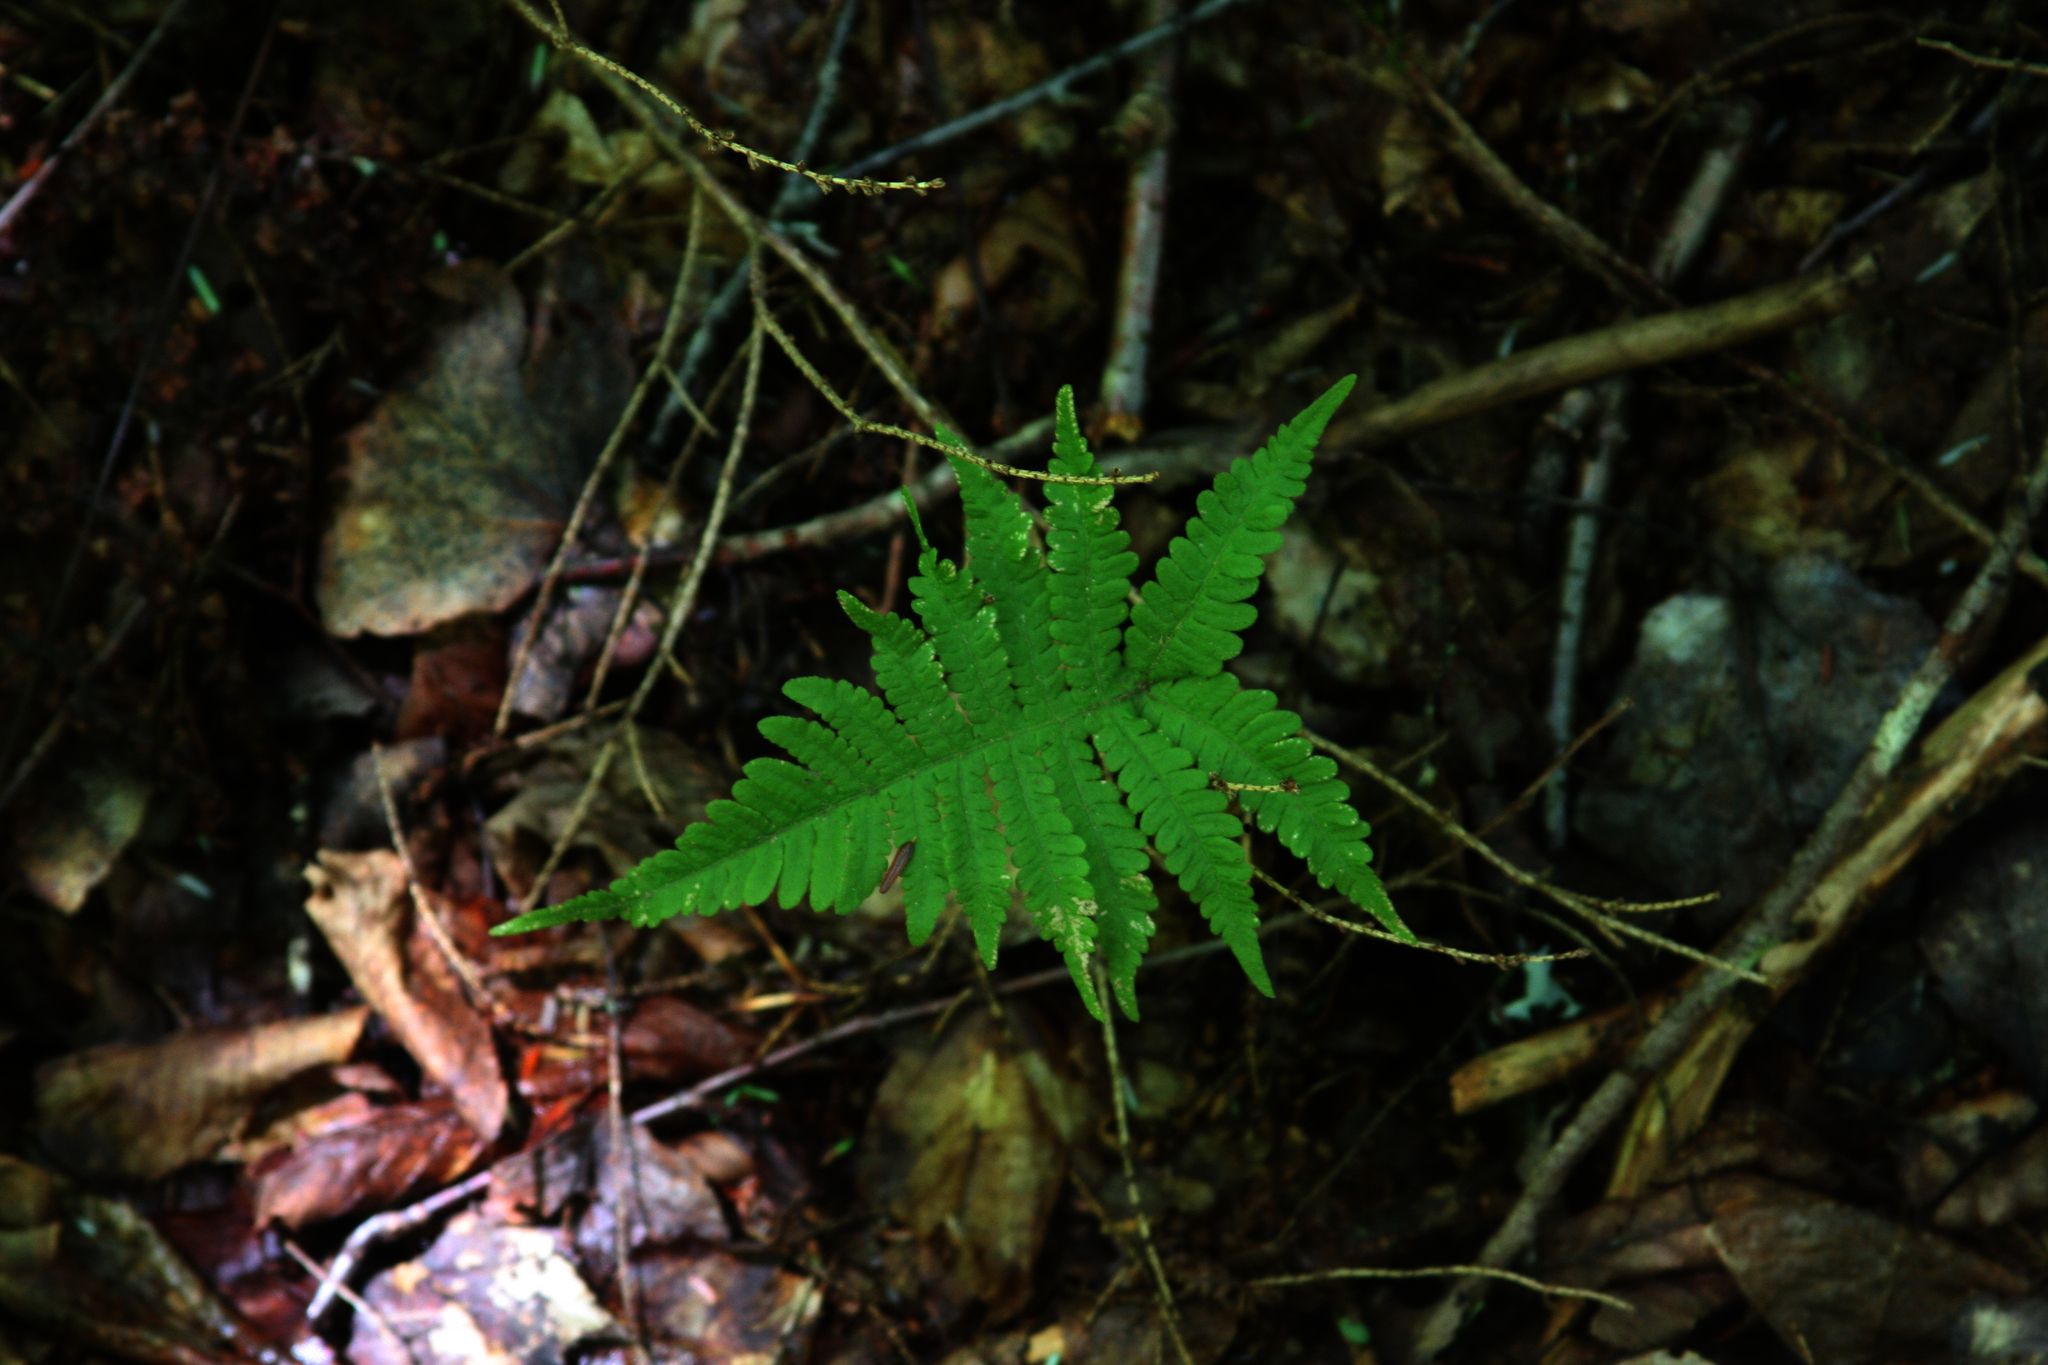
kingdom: Plantae
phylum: Tracheophyta
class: Polypodiopsida
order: Polypodiales
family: Thelypteridaceae
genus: Phegopteris
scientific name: Phegopteris connectilis
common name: Beech fern
